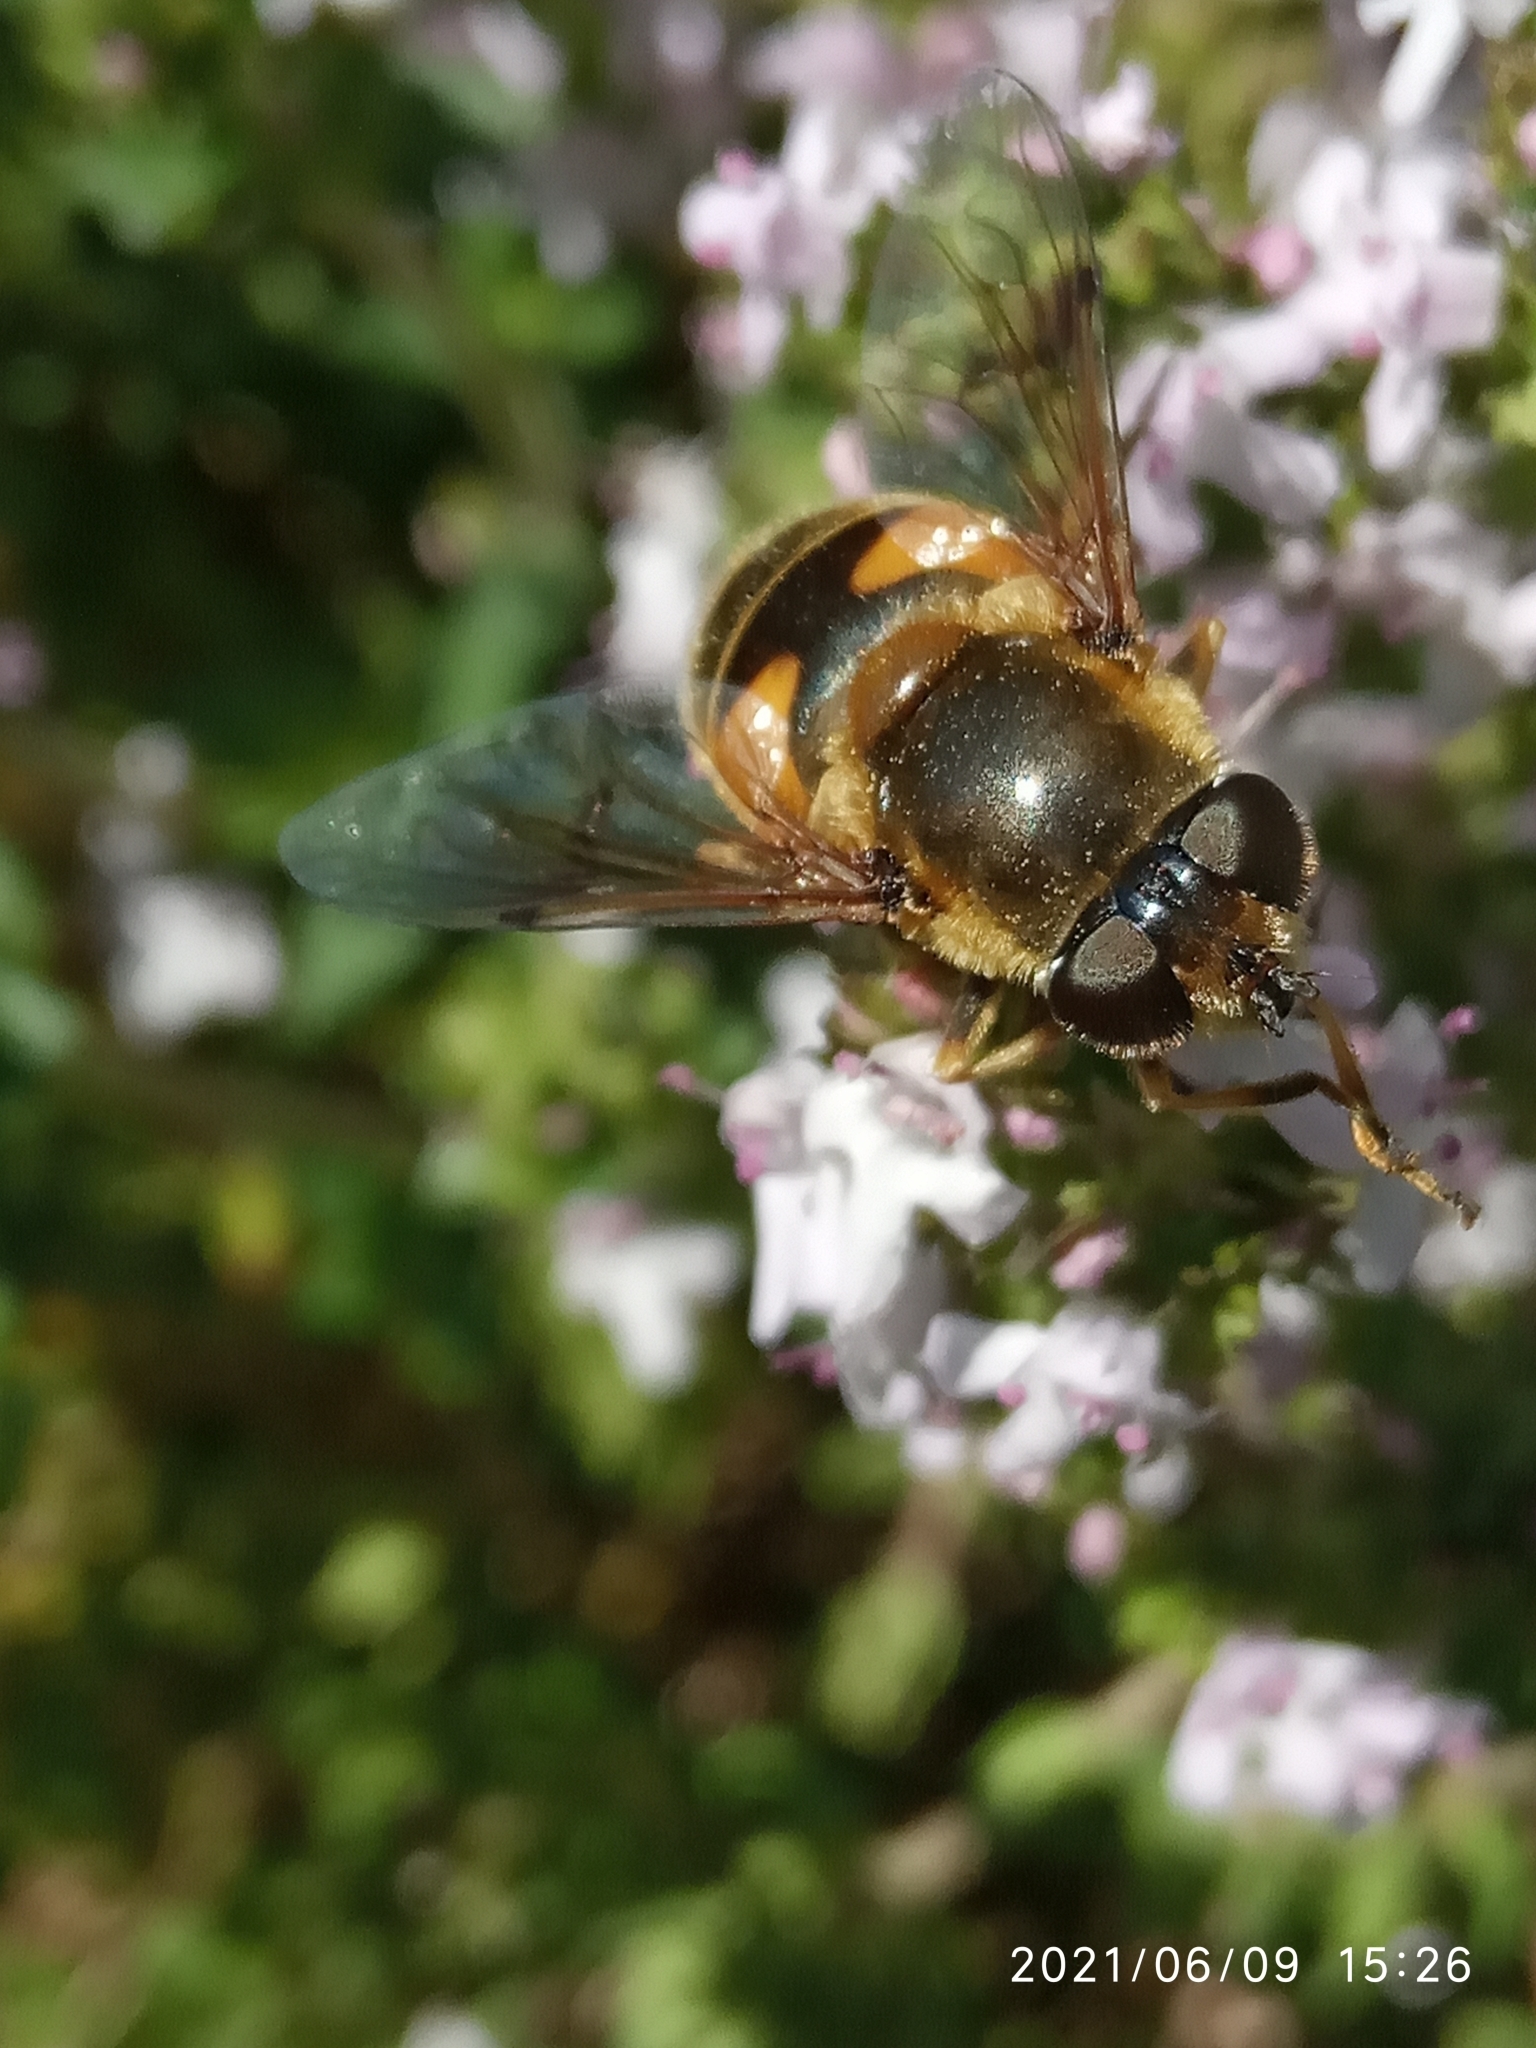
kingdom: Animalia
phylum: Arthropoda
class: Insecta
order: Diptera
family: Syrphidae
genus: Cheilosia
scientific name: Cheilosia morio
